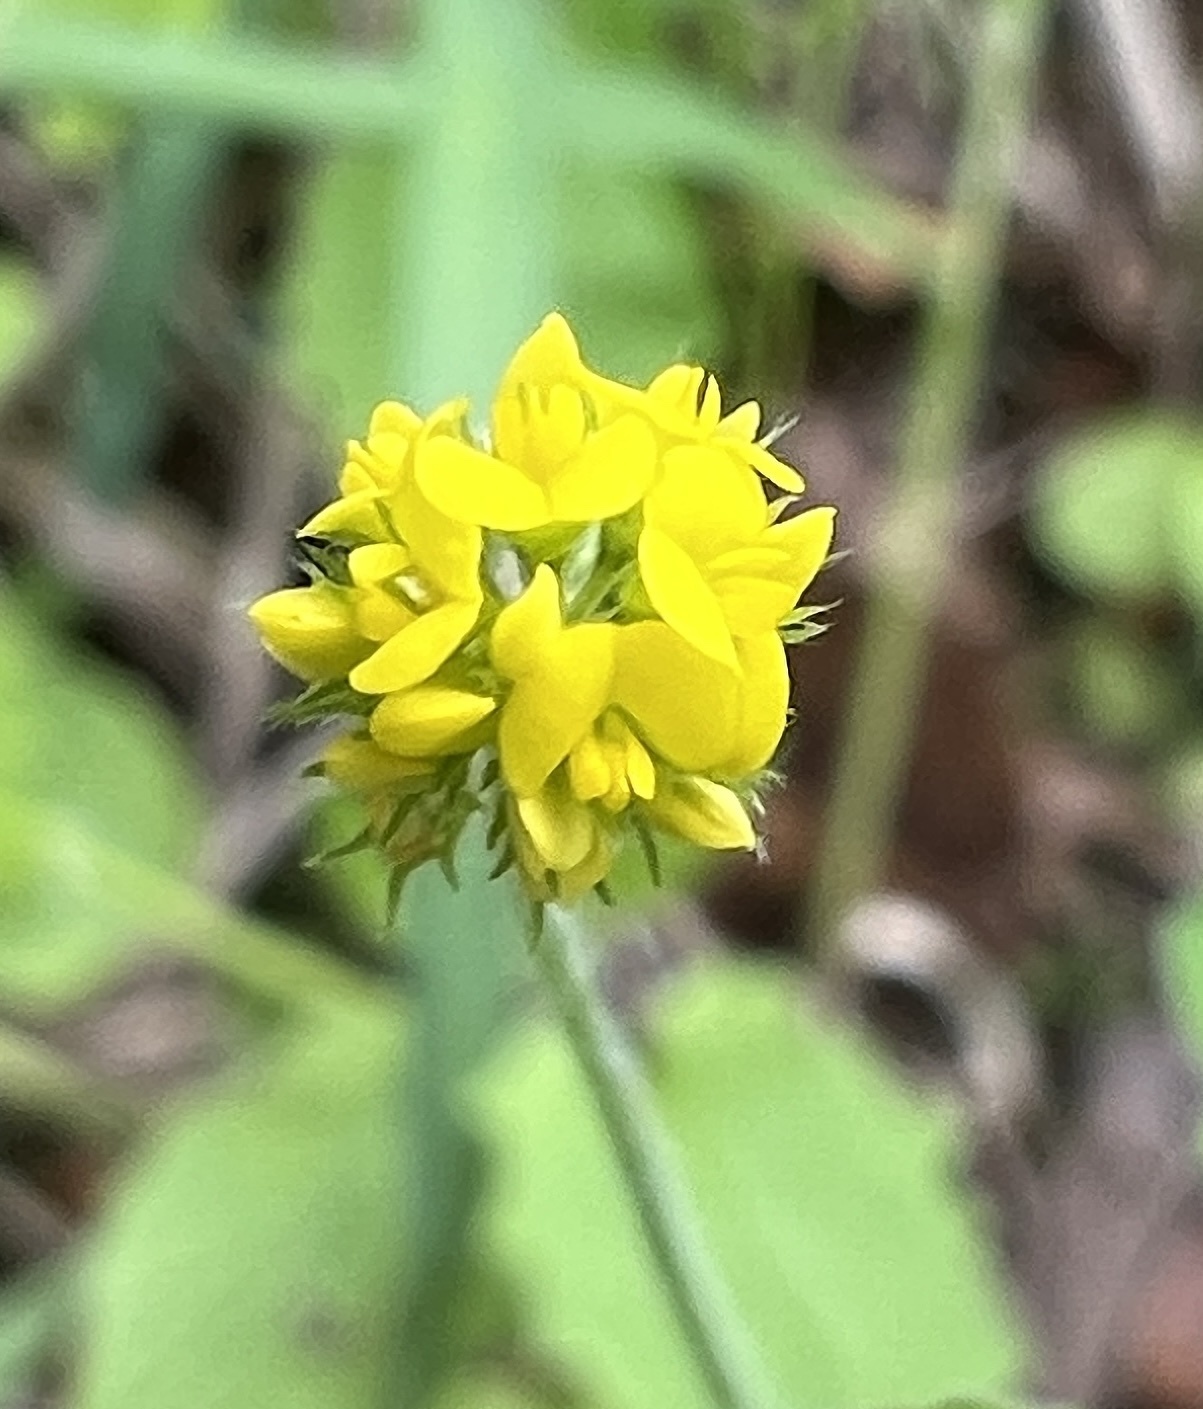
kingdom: Plantae
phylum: Tracheophyta
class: Magnoliopsida
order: Fabales
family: Fabaceae
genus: Medicago
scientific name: Medicago lupulina
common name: Black medick
